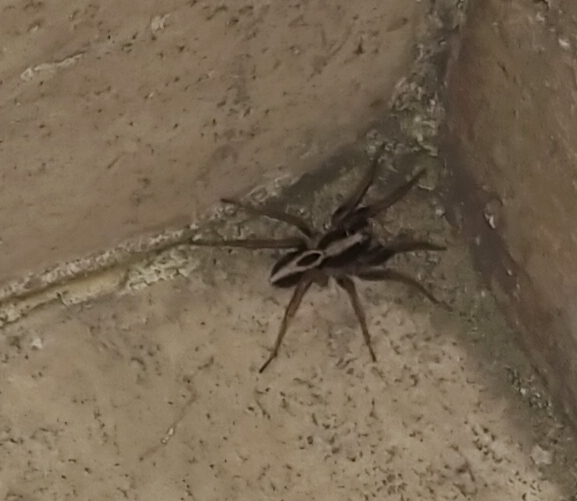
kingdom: Animalia
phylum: Arthropoda
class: Arachnida
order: Araneae
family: Lycosidae
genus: Alopecosa
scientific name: Alopecosa albofasciata
